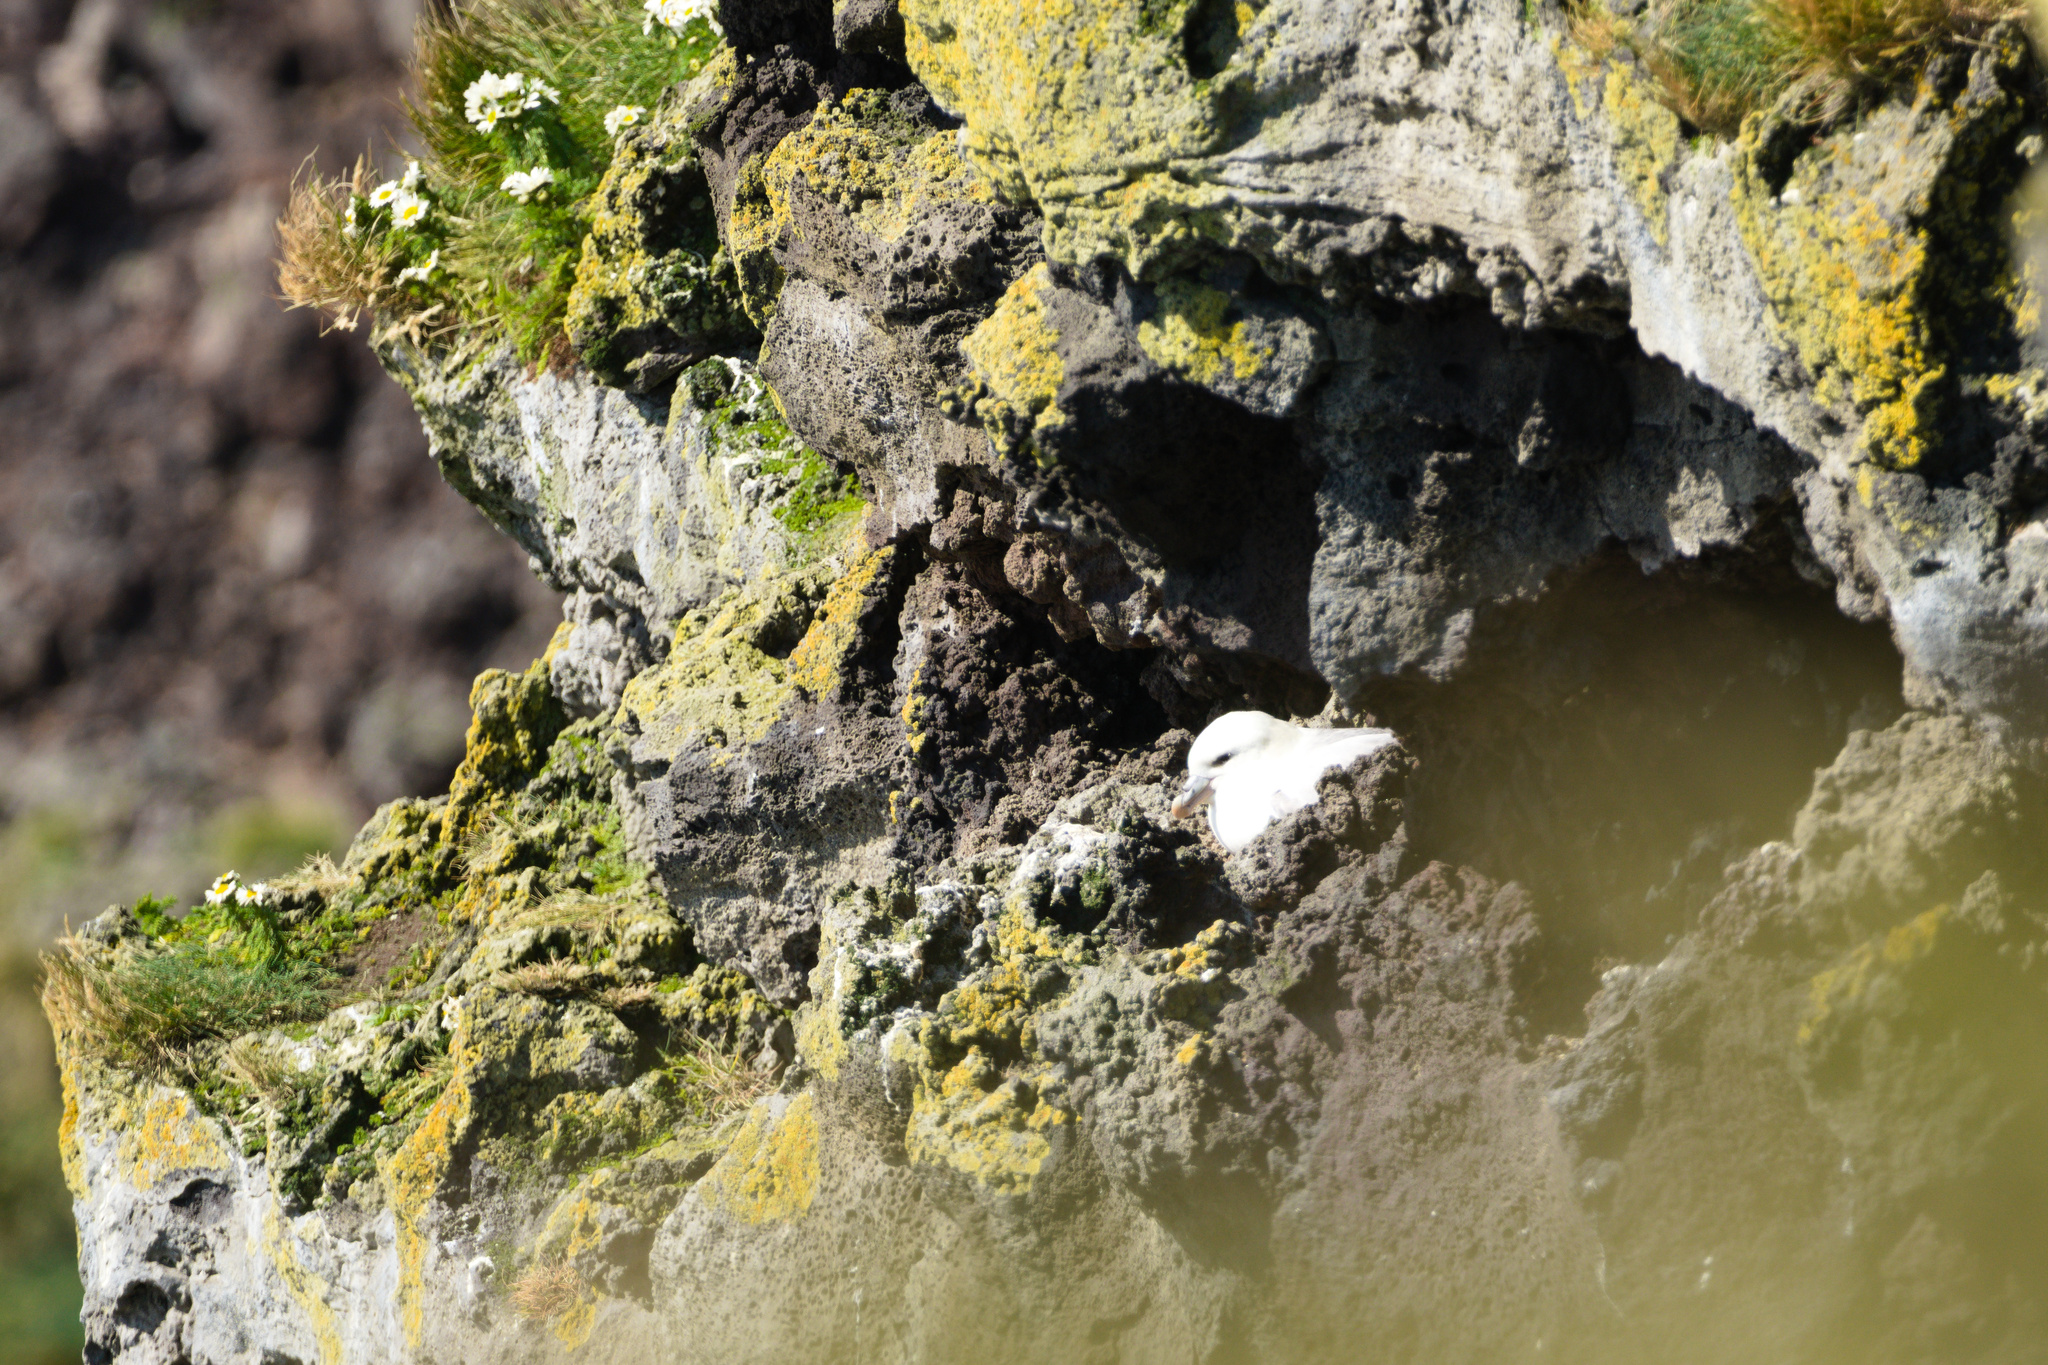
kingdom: Animalia
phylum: Chordata
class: Aves
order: Procellariiformes
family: Procellariidae
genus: Fulmarus
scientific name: Fulmarus glacialis
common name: Northern fulmar
